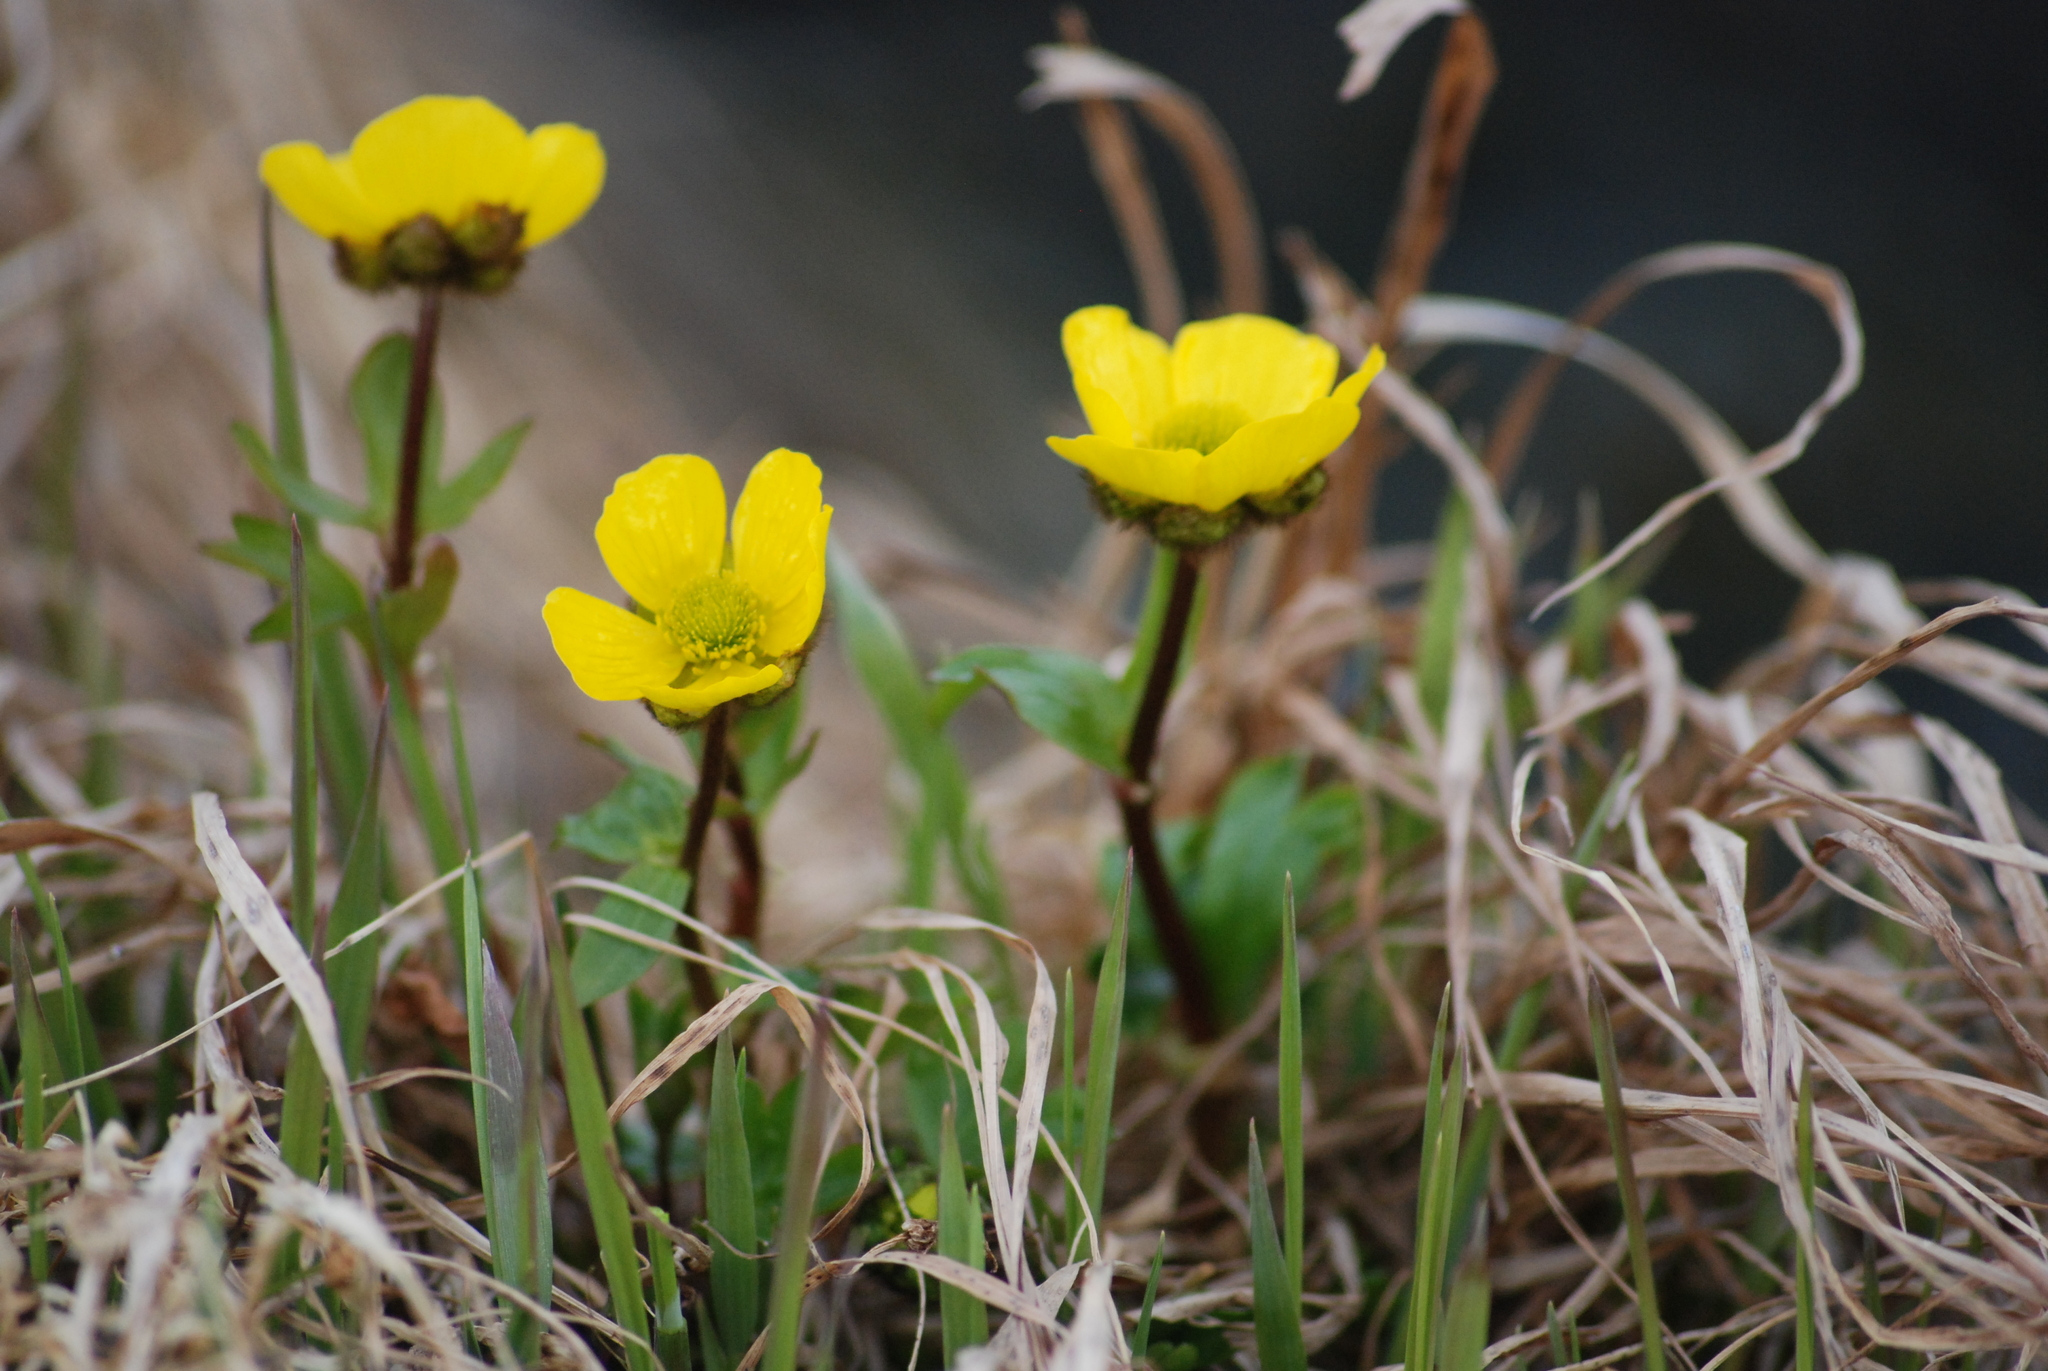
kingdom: Plantae
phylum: Tracheophyta
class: Magnoliopsida
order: Ranunculales
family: Ranunculaceae
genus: Ranunculus
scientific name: Ranunculus nivalis
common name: Snow buttercup
